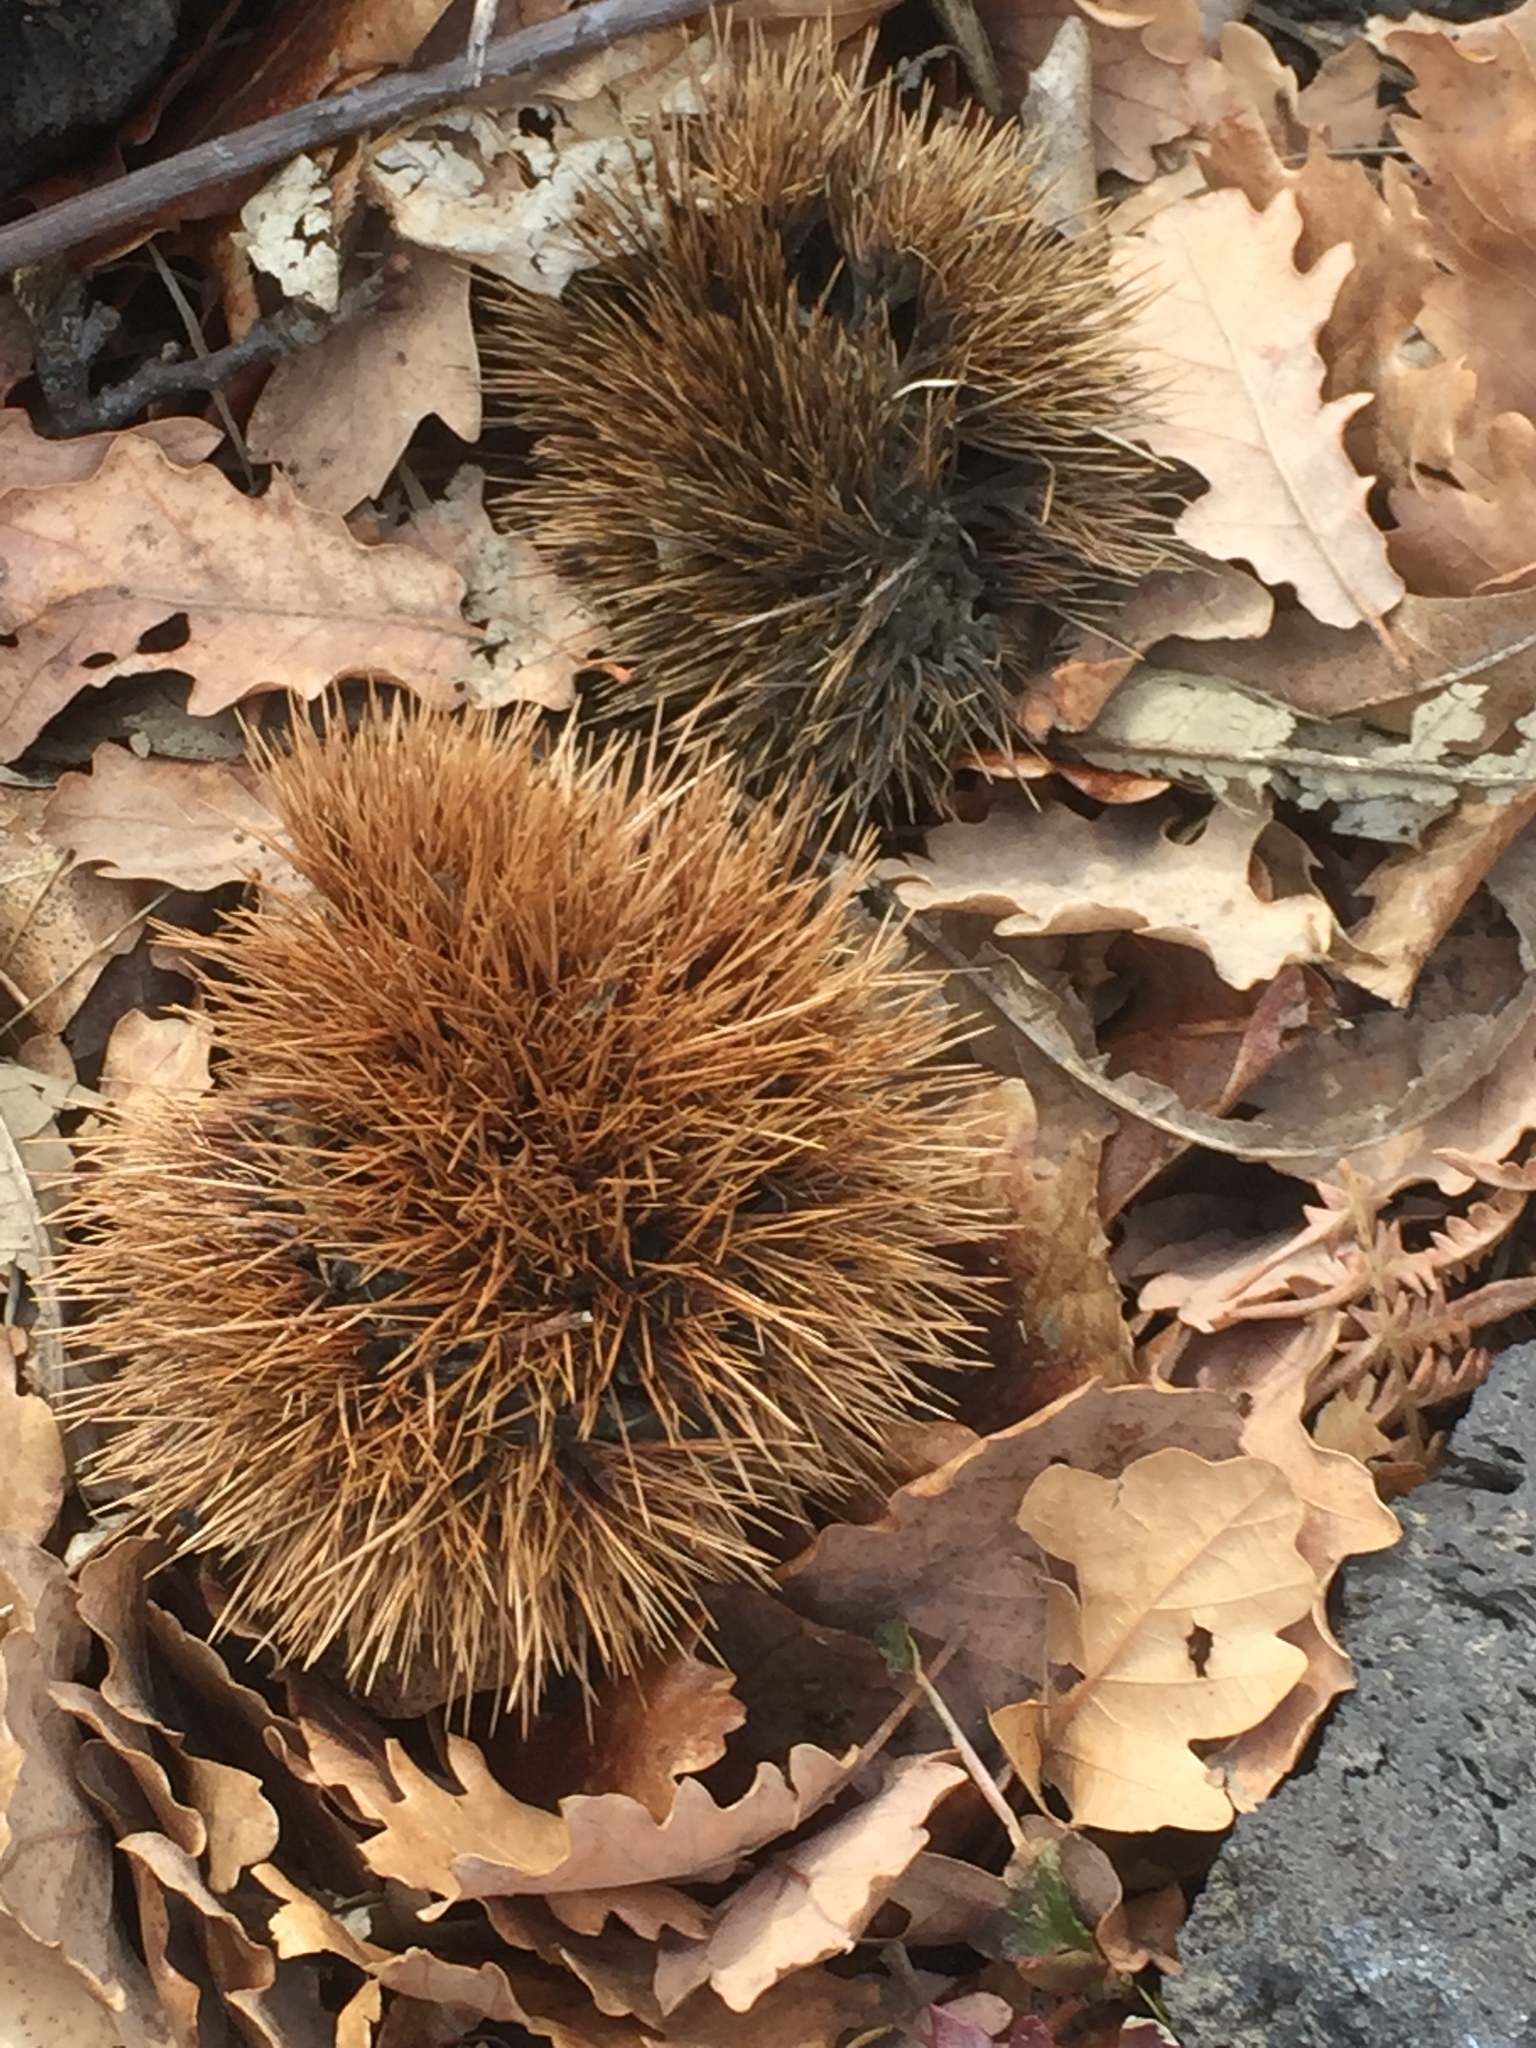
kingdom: Plantae
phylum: Tracheophyta
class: Magnoliopsida
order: Fagales
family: Fagaceae
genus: Castanea
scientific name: Castanea sativa
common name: Sweet chestnut
